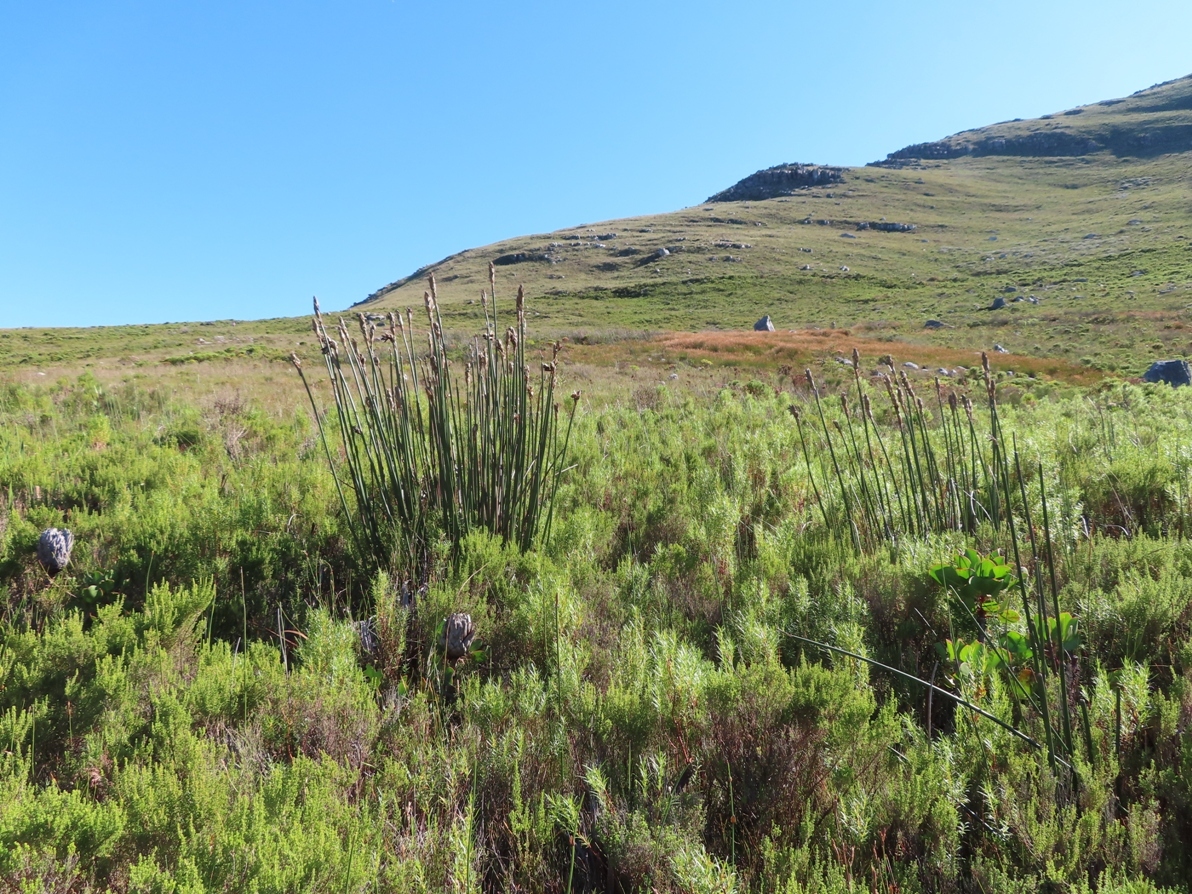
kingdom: Plantae
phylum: Tracheophyta
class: Liliopsida
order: Poales
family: Restionaceae
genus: Elegia
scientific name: Elegia mucronata
